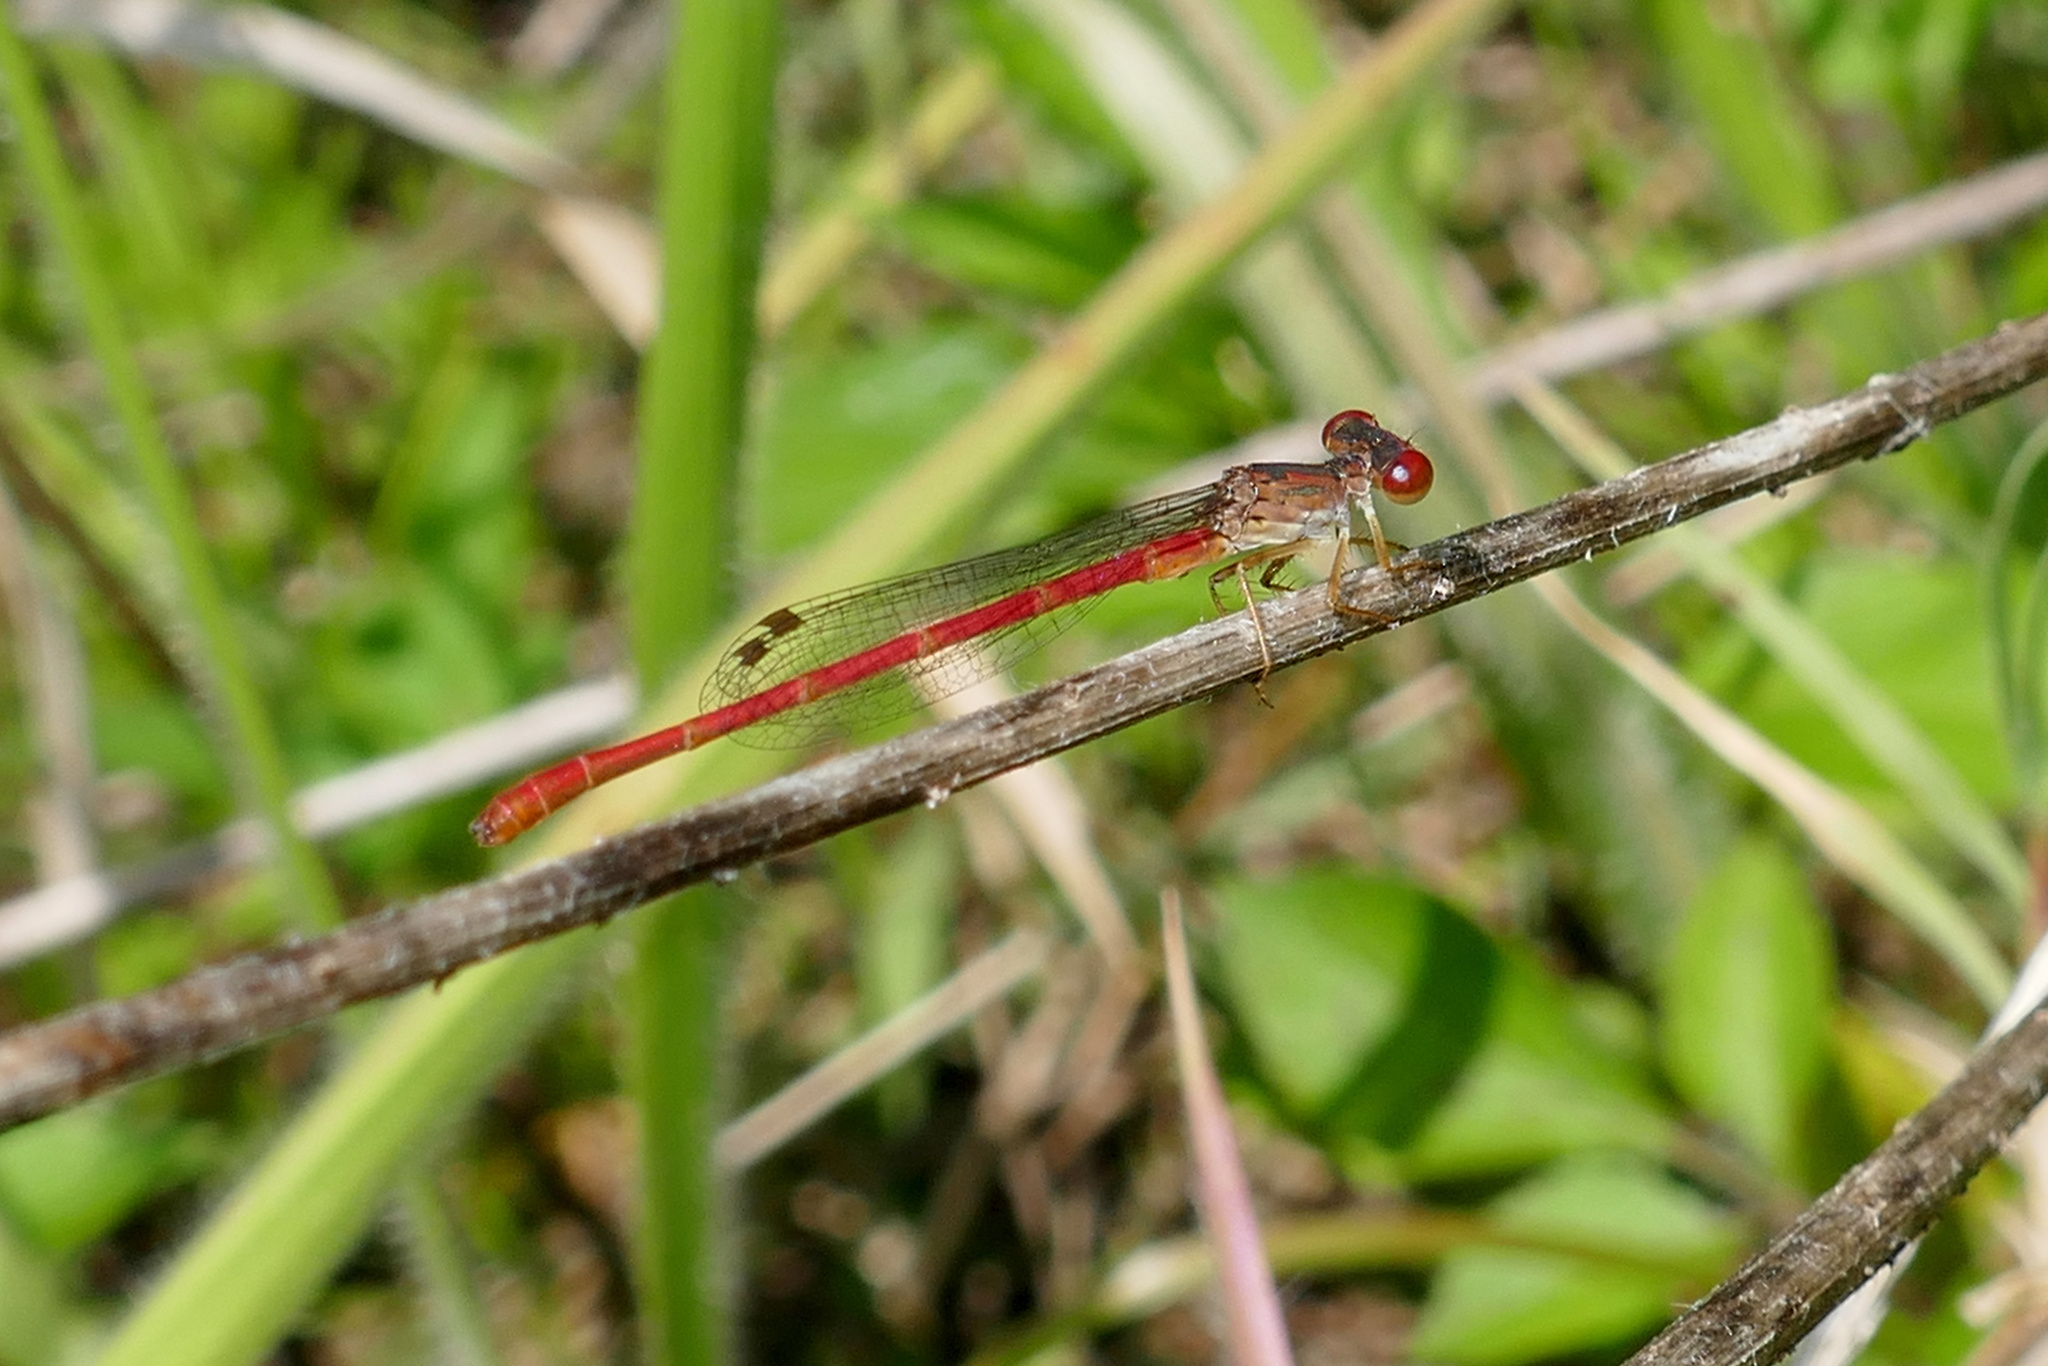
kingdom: Animalia
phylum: Arthropoda
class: Insecta
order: Odonata
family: Coenagrionidae
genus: Telebasis
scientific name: Telebasis byersi
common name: Duckweed firetail
